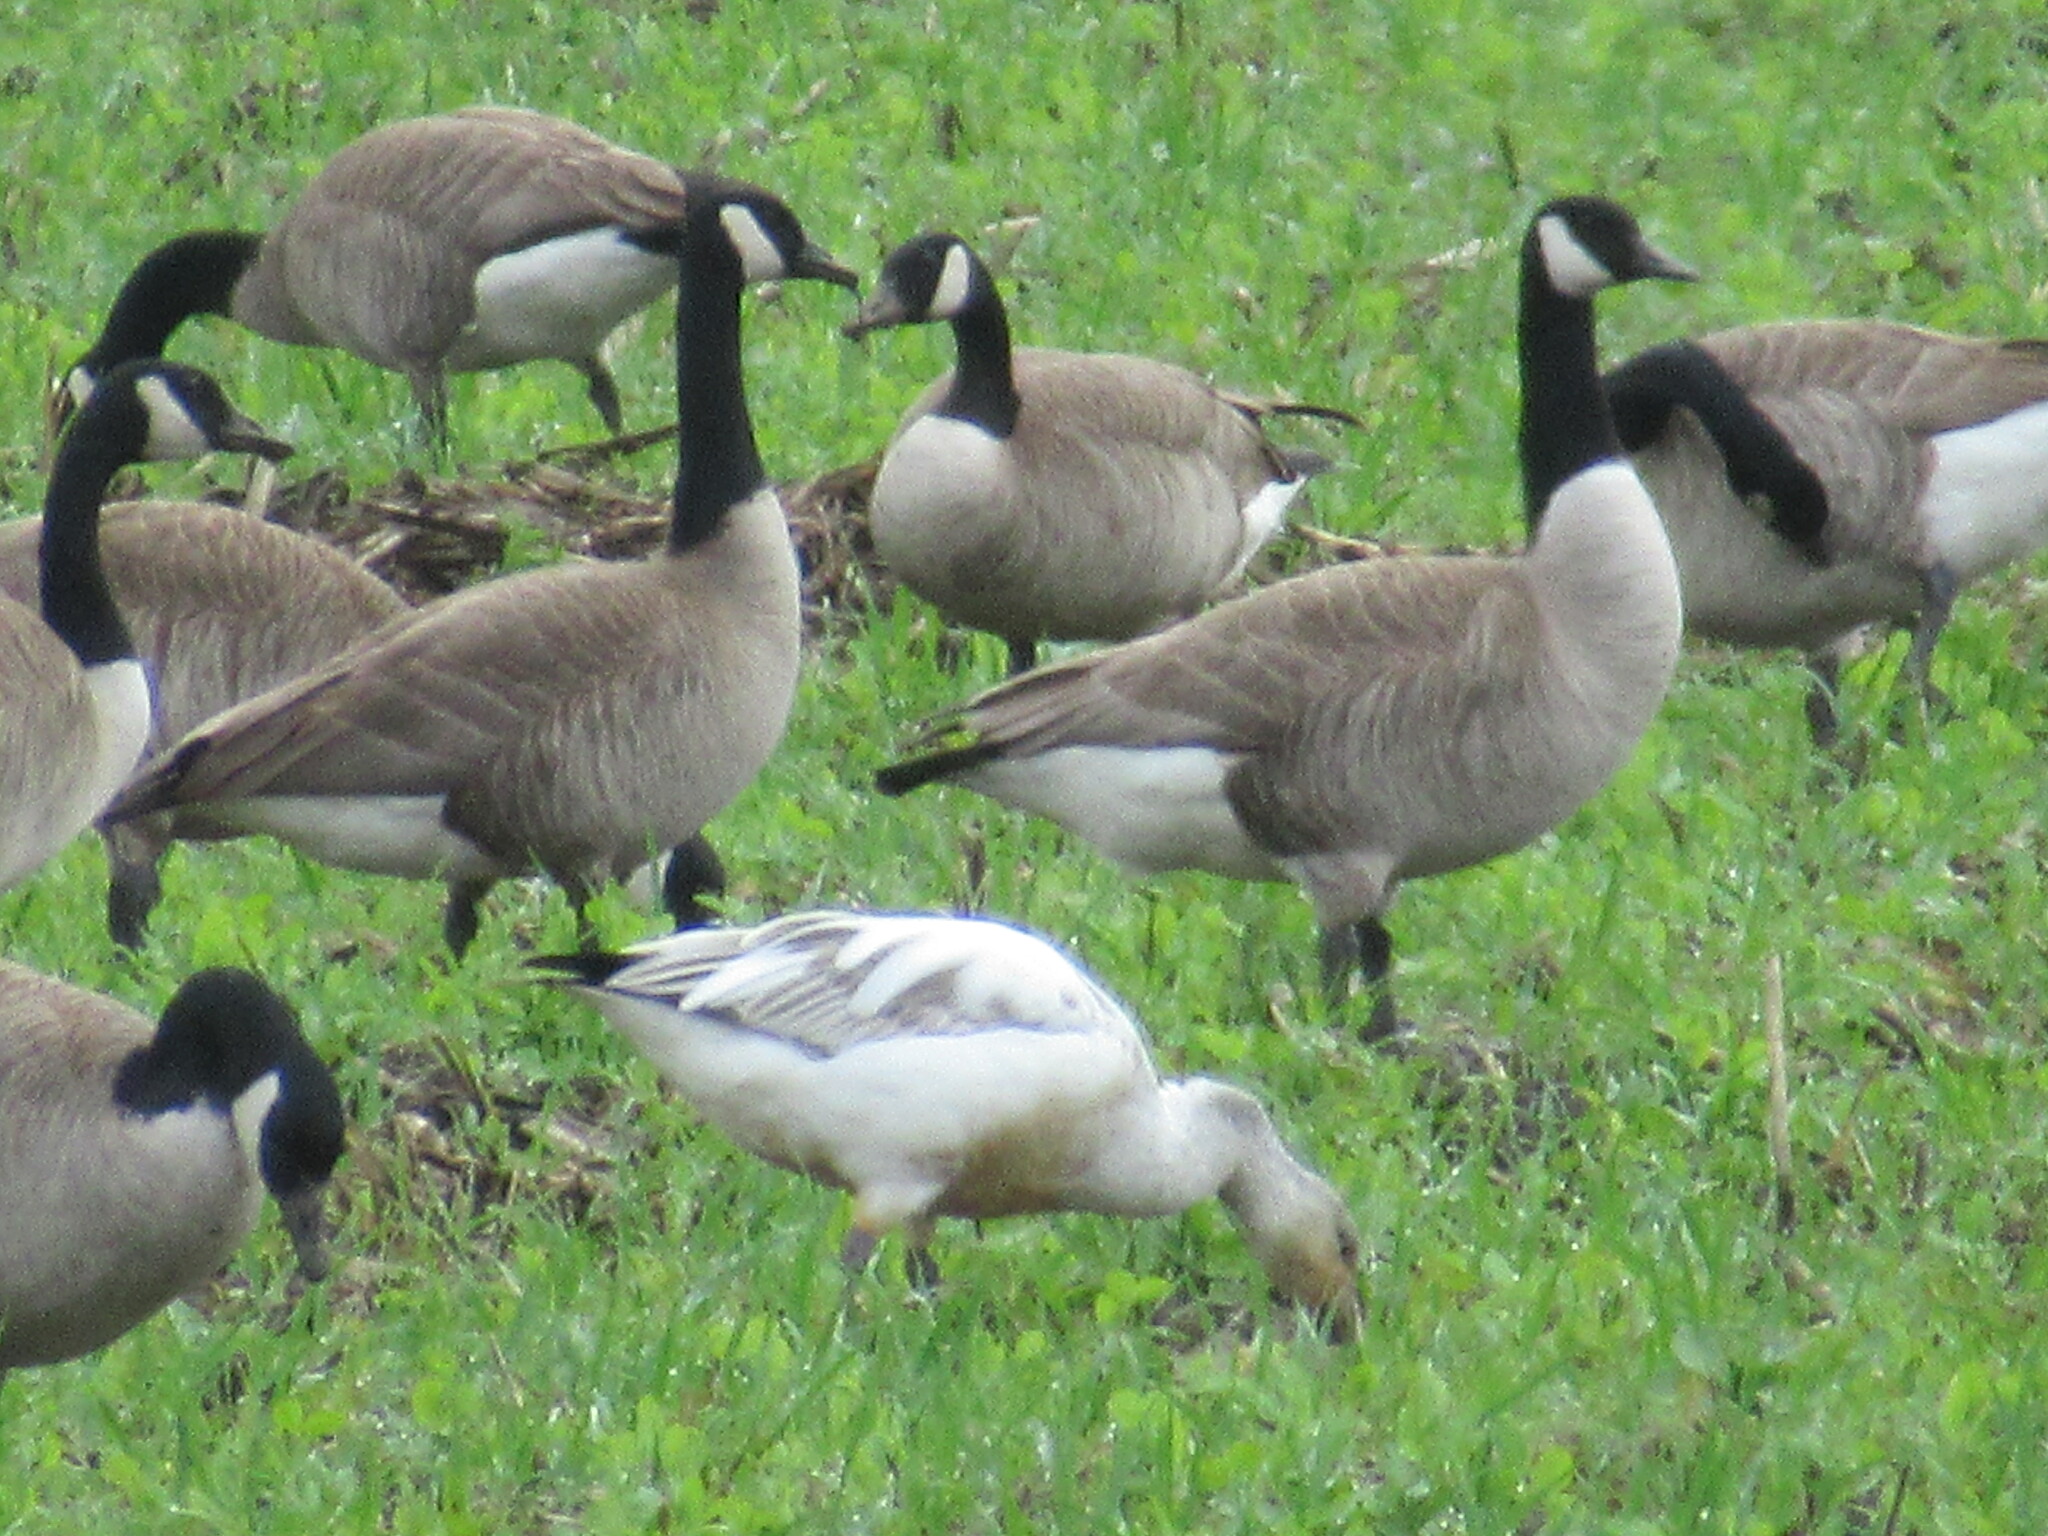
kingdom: Animalia
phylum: Chordata
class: Aves
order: Anseriformes
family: Anatidae
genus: Branta
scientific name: Branta canadensis
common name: Canada goose
